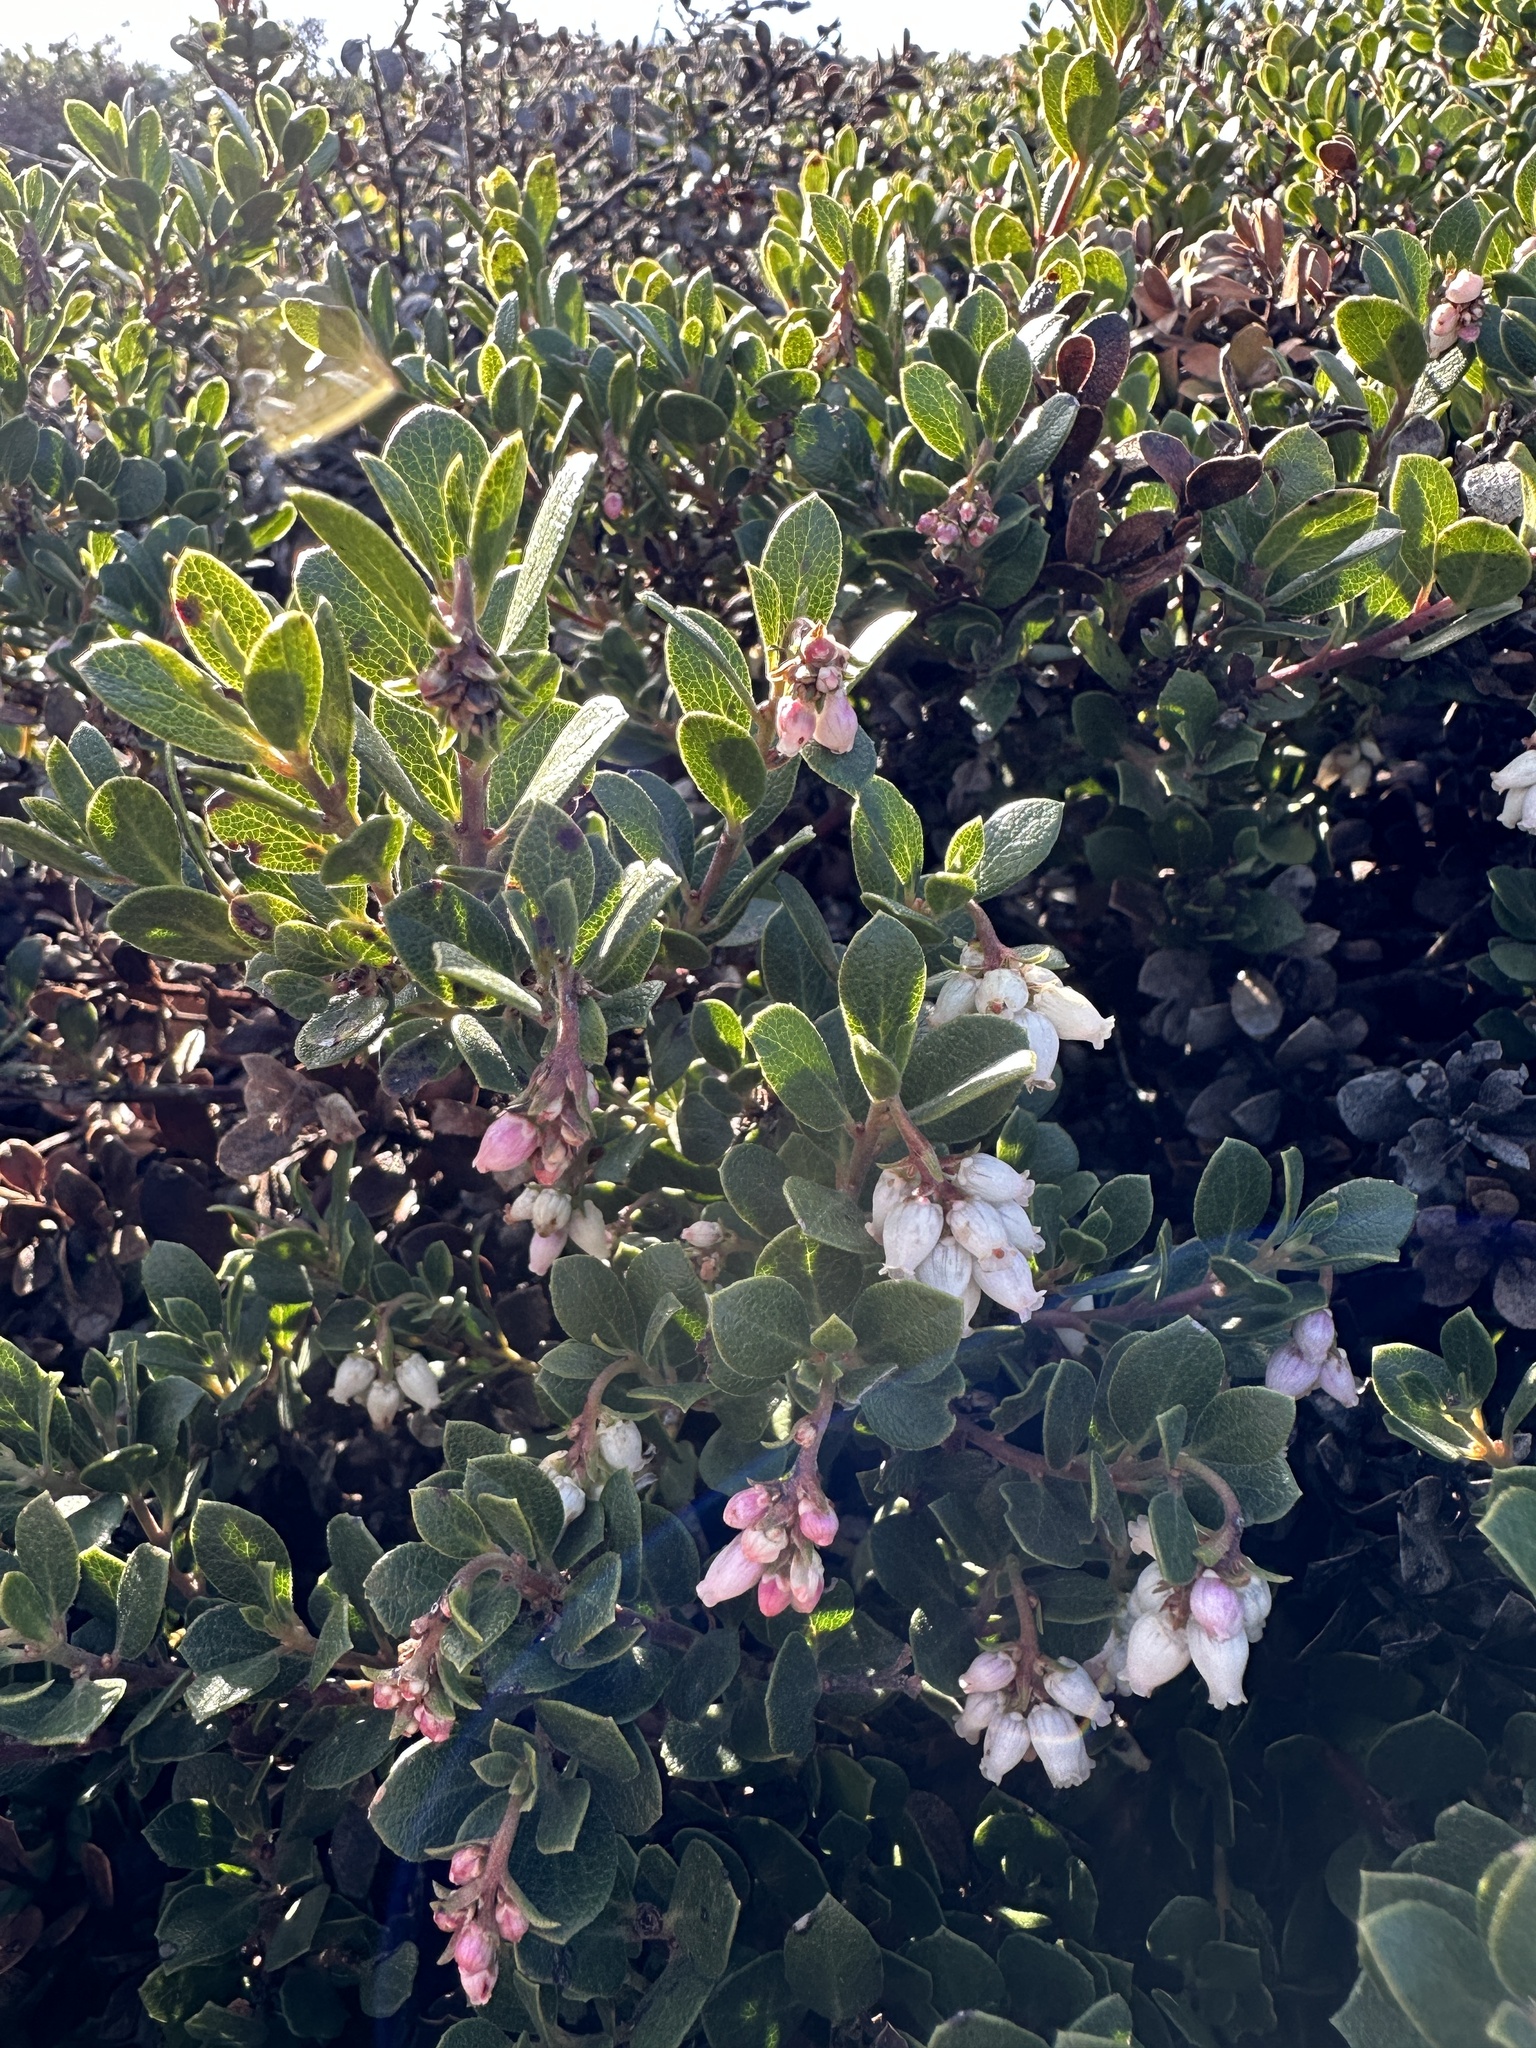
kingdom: Plantae
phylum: Tracheophyta
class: Magnoliopsida
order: Ericales
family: Ericaceae
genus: Arctostaphylos
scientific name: Arctostaphylos pacifica
